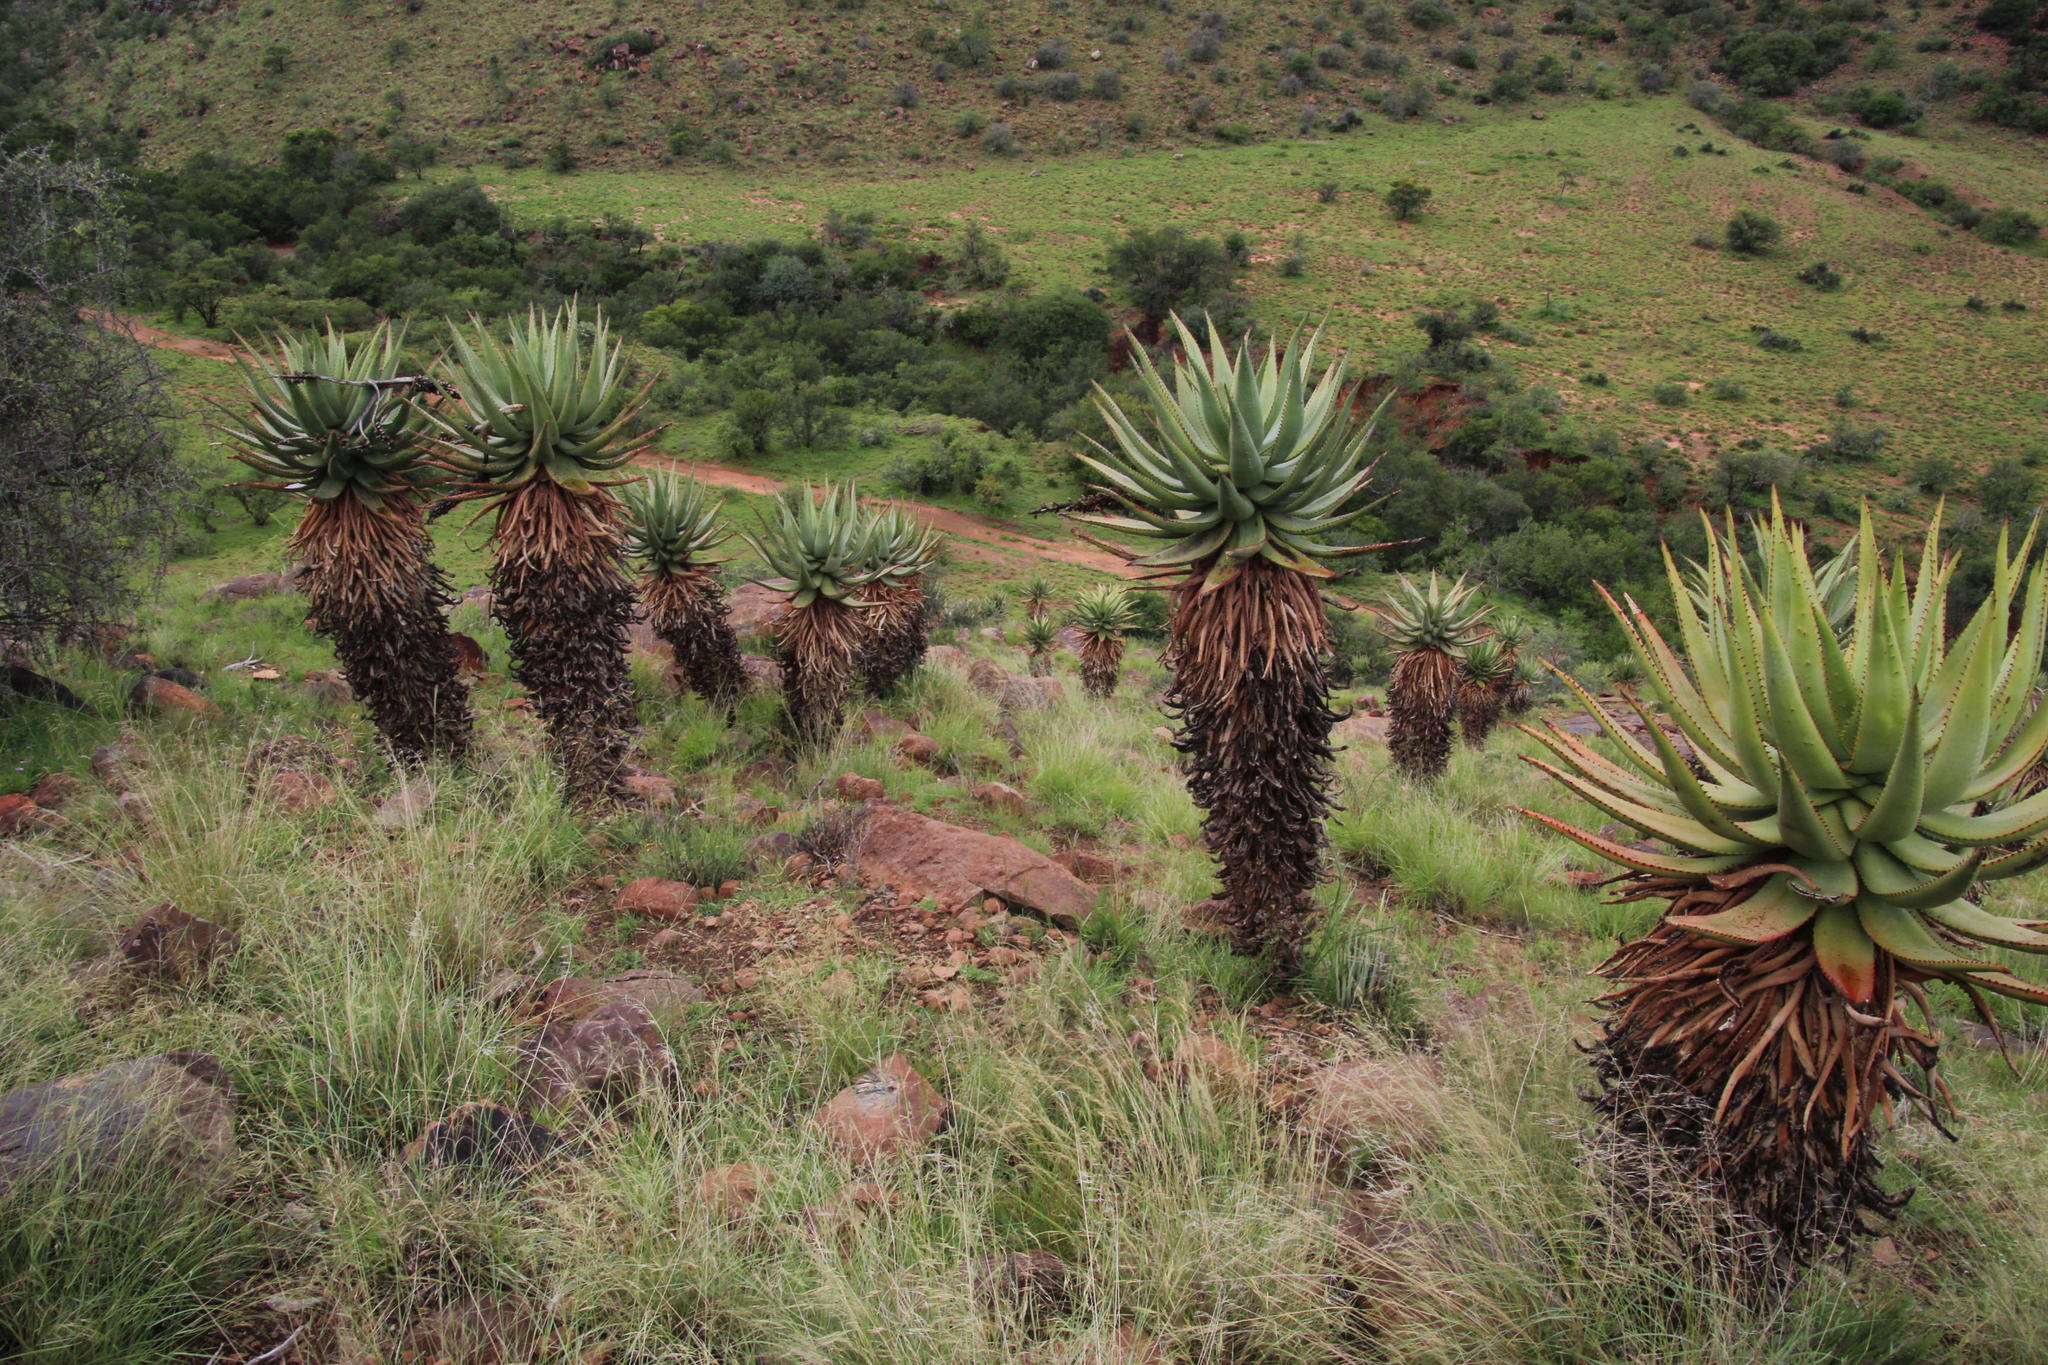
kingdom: Plantae
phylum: Tracheophyta
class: Liliopsida
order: Asparagales
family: Asphodelaceae
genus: Aloe
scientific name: Aloe ferox
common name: Bitter aloe
